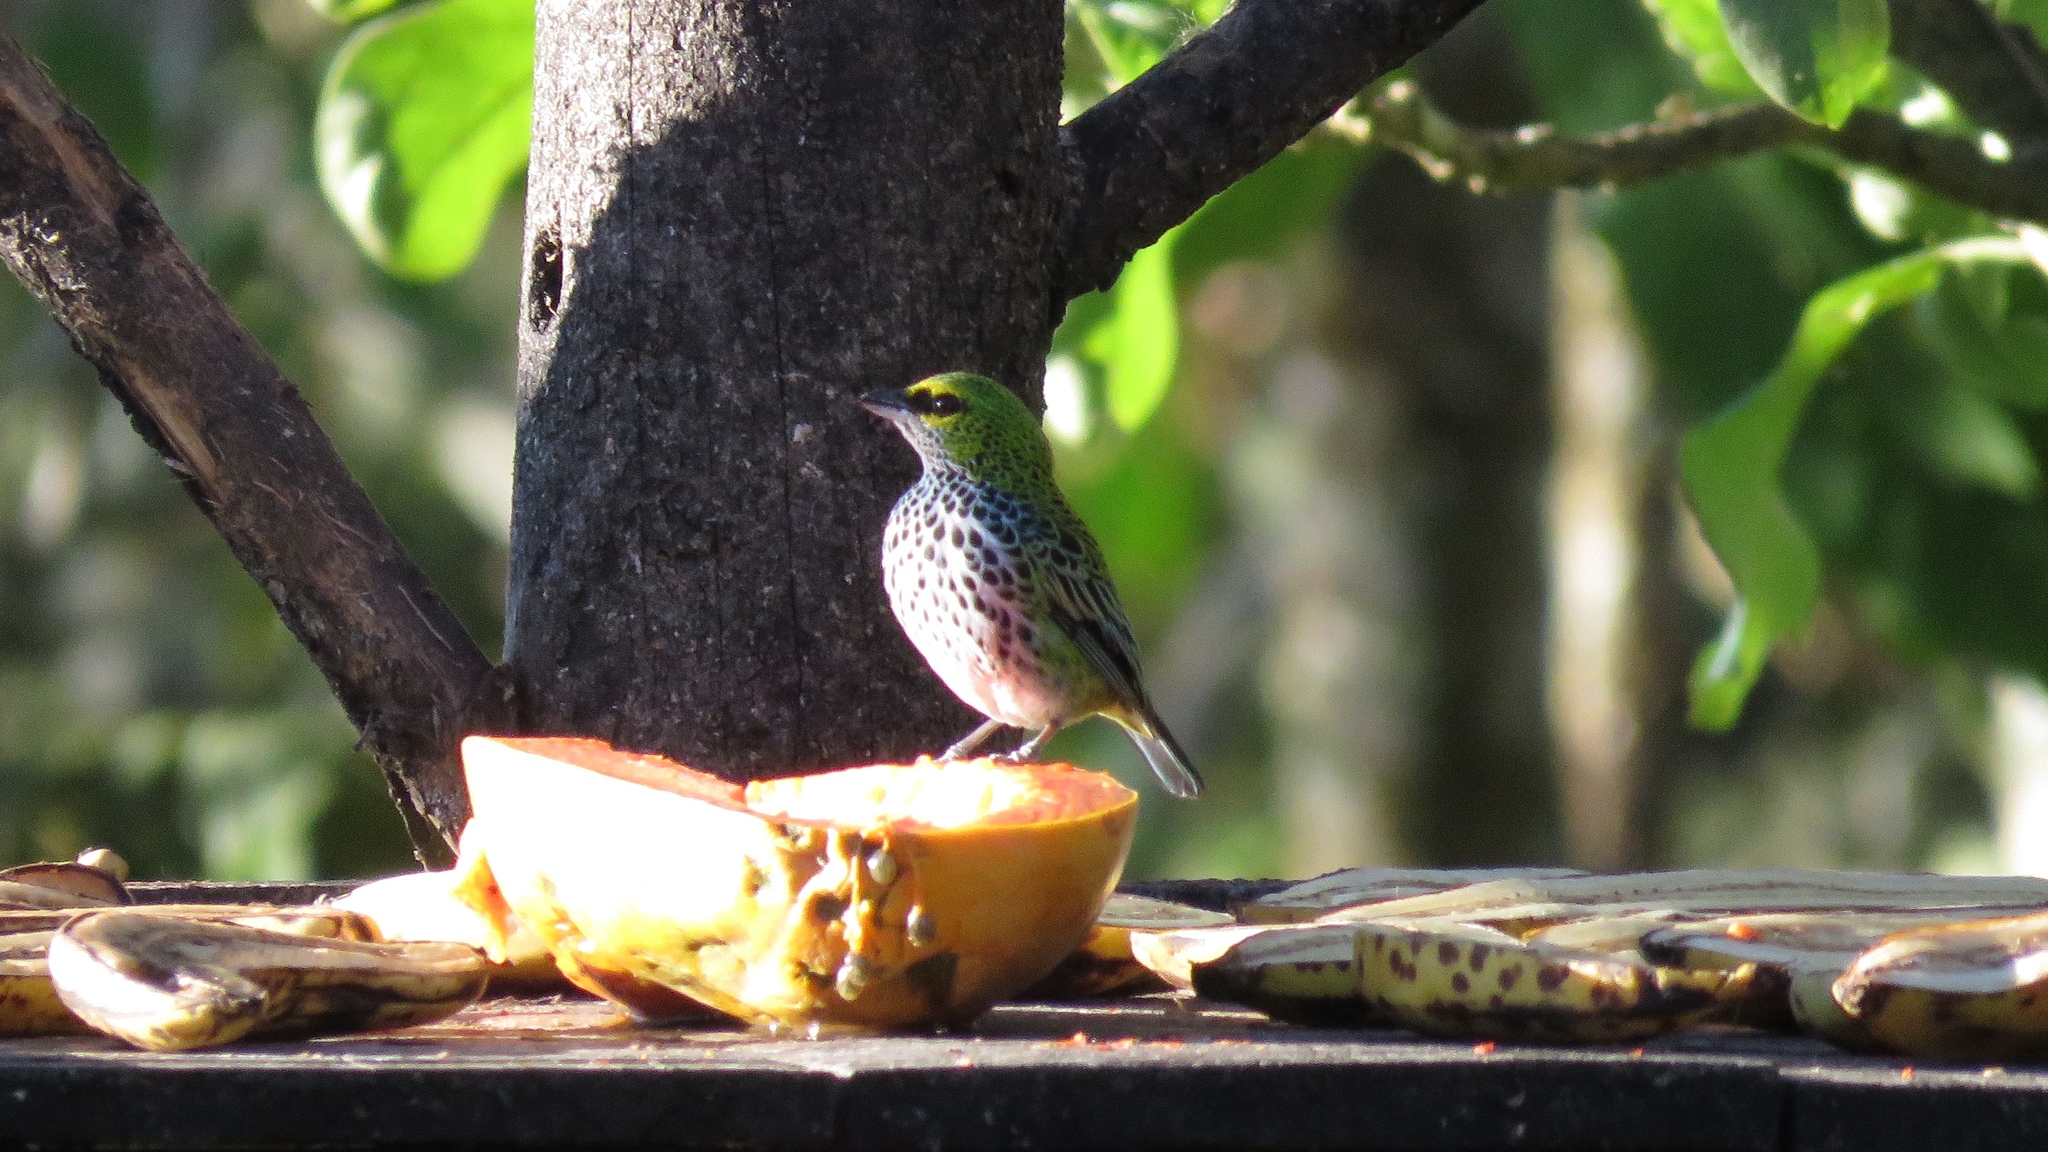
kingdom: Animalia
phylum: Chordata
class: Aves
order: Passeriformes
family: Thraupidae
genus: Ixothraupis
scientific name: Ixothraupis guttata
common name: Speckled tanager
